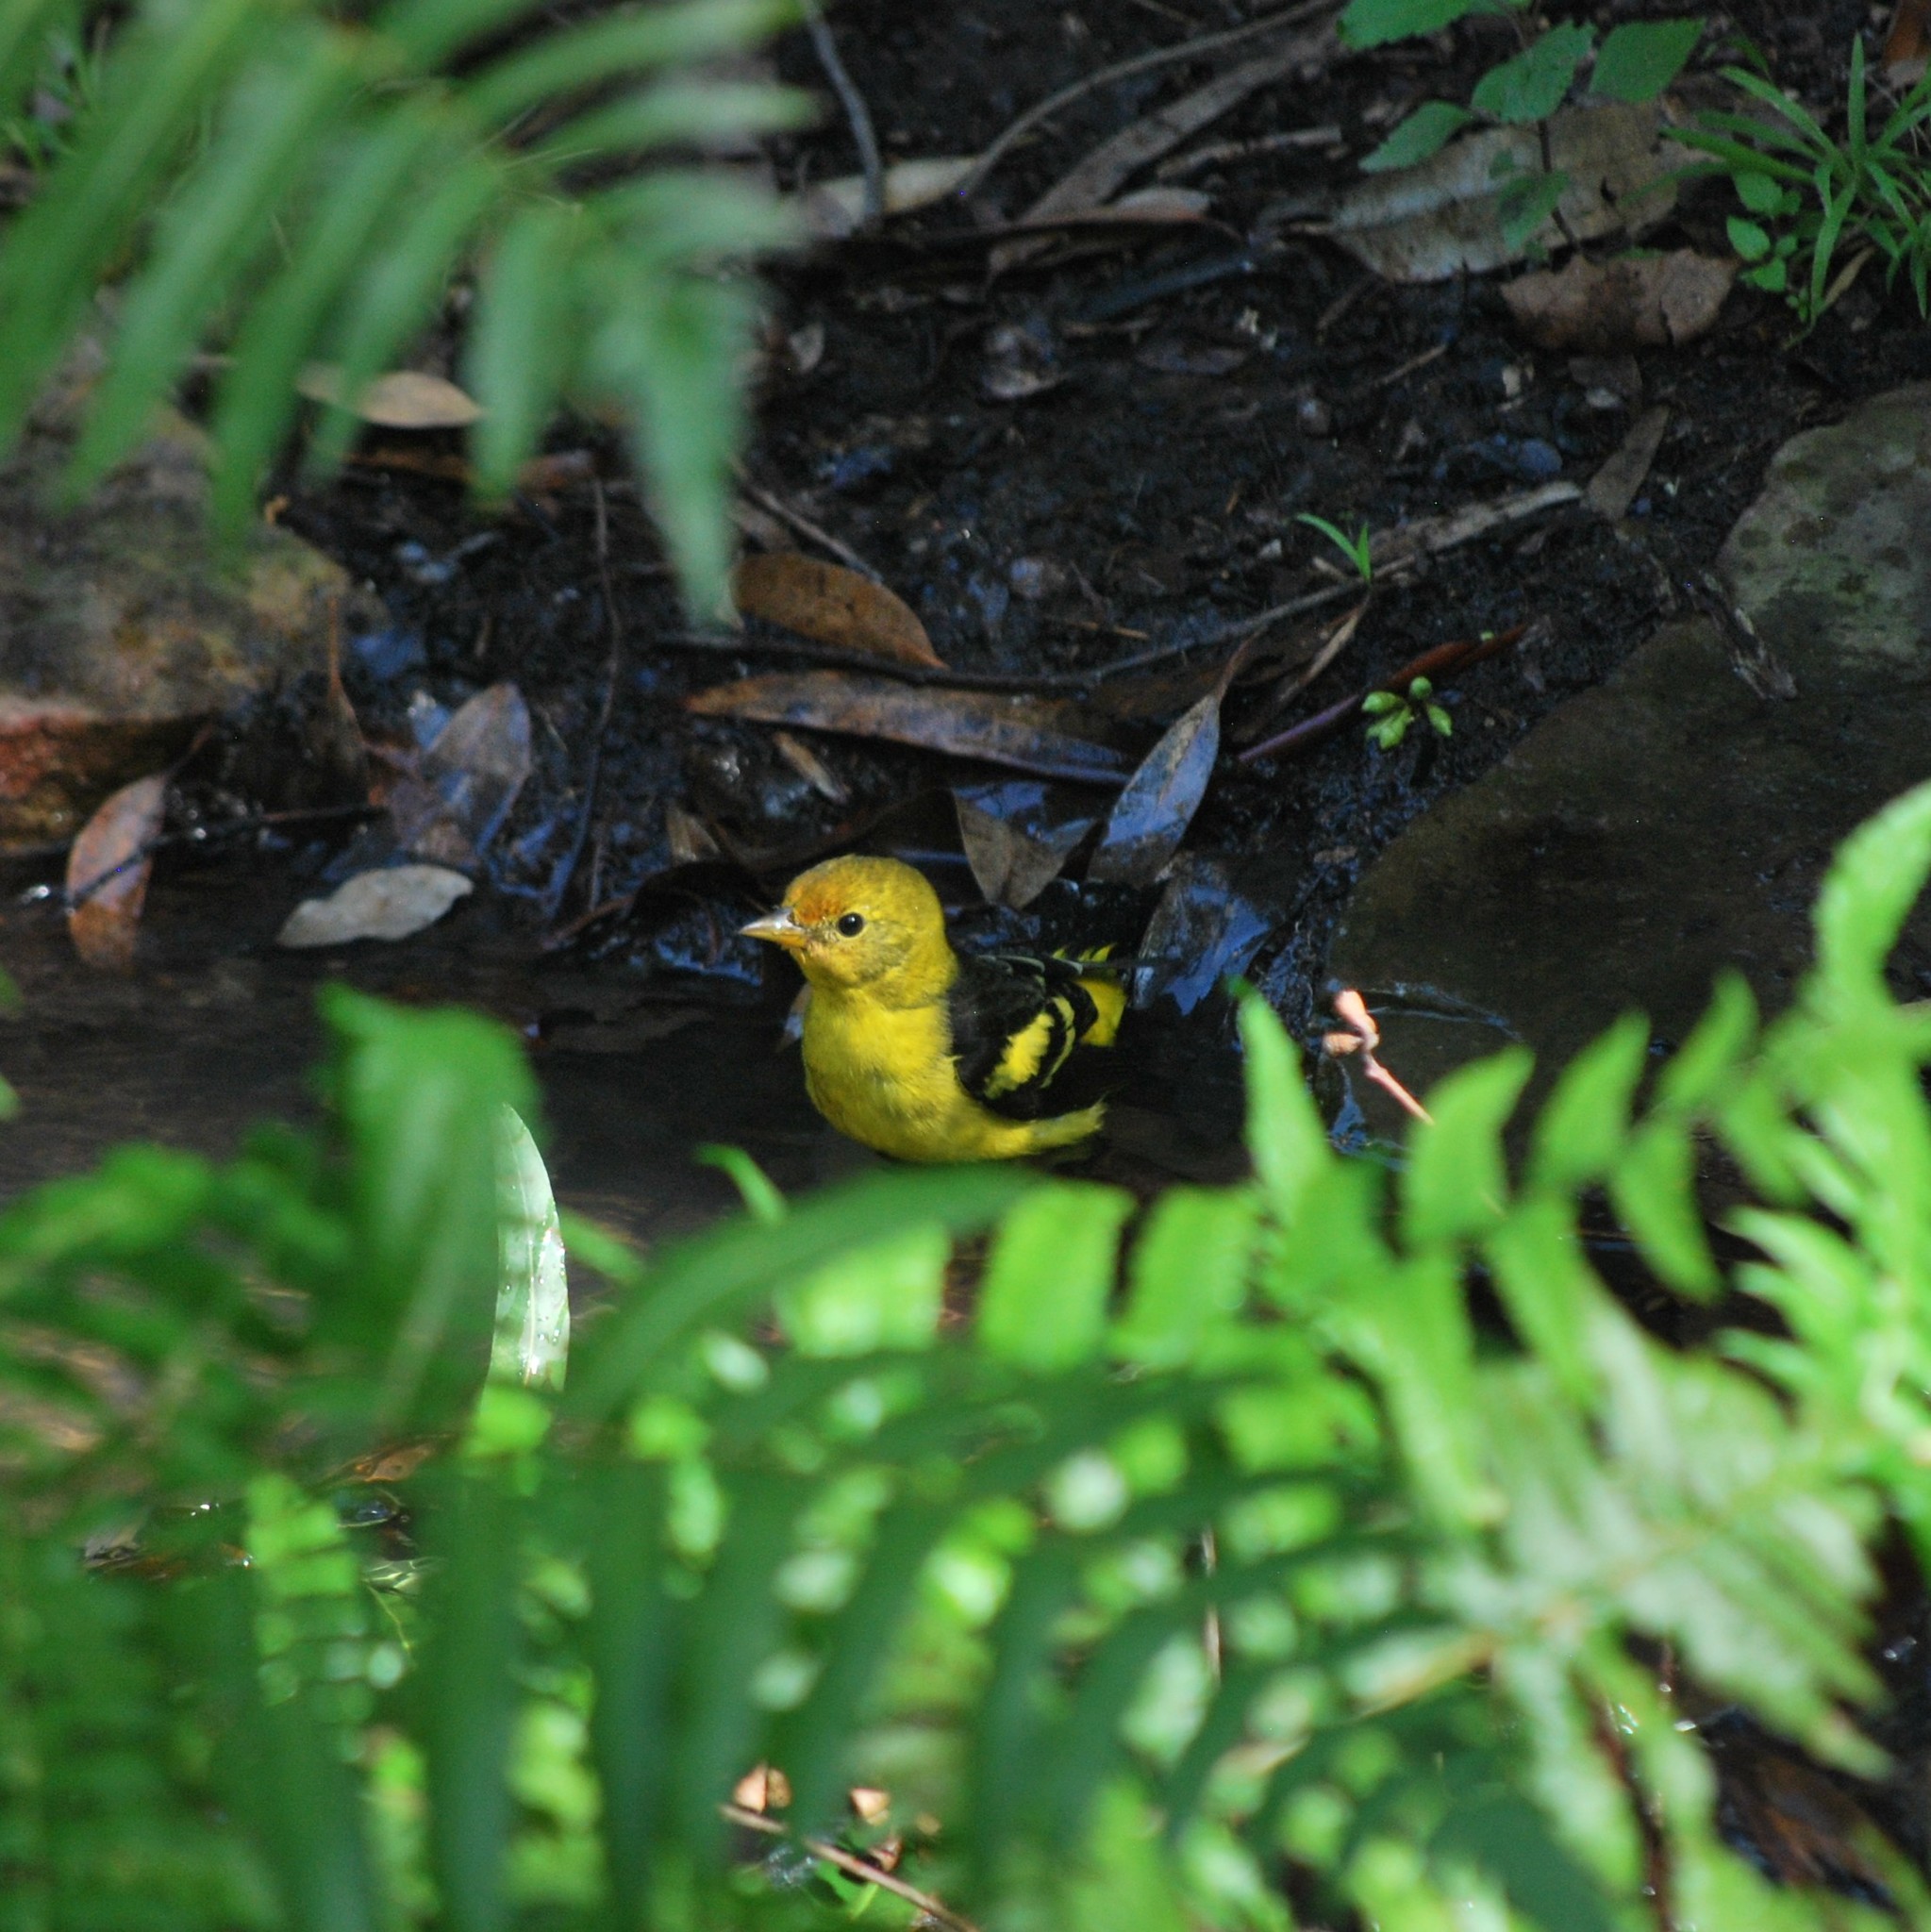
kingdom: Animalia
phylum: Chordata
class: Aves
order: Passeriformes
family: Cardinalidae
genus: Piranga
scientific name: Piranga ludoviciana
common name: Western tanager
